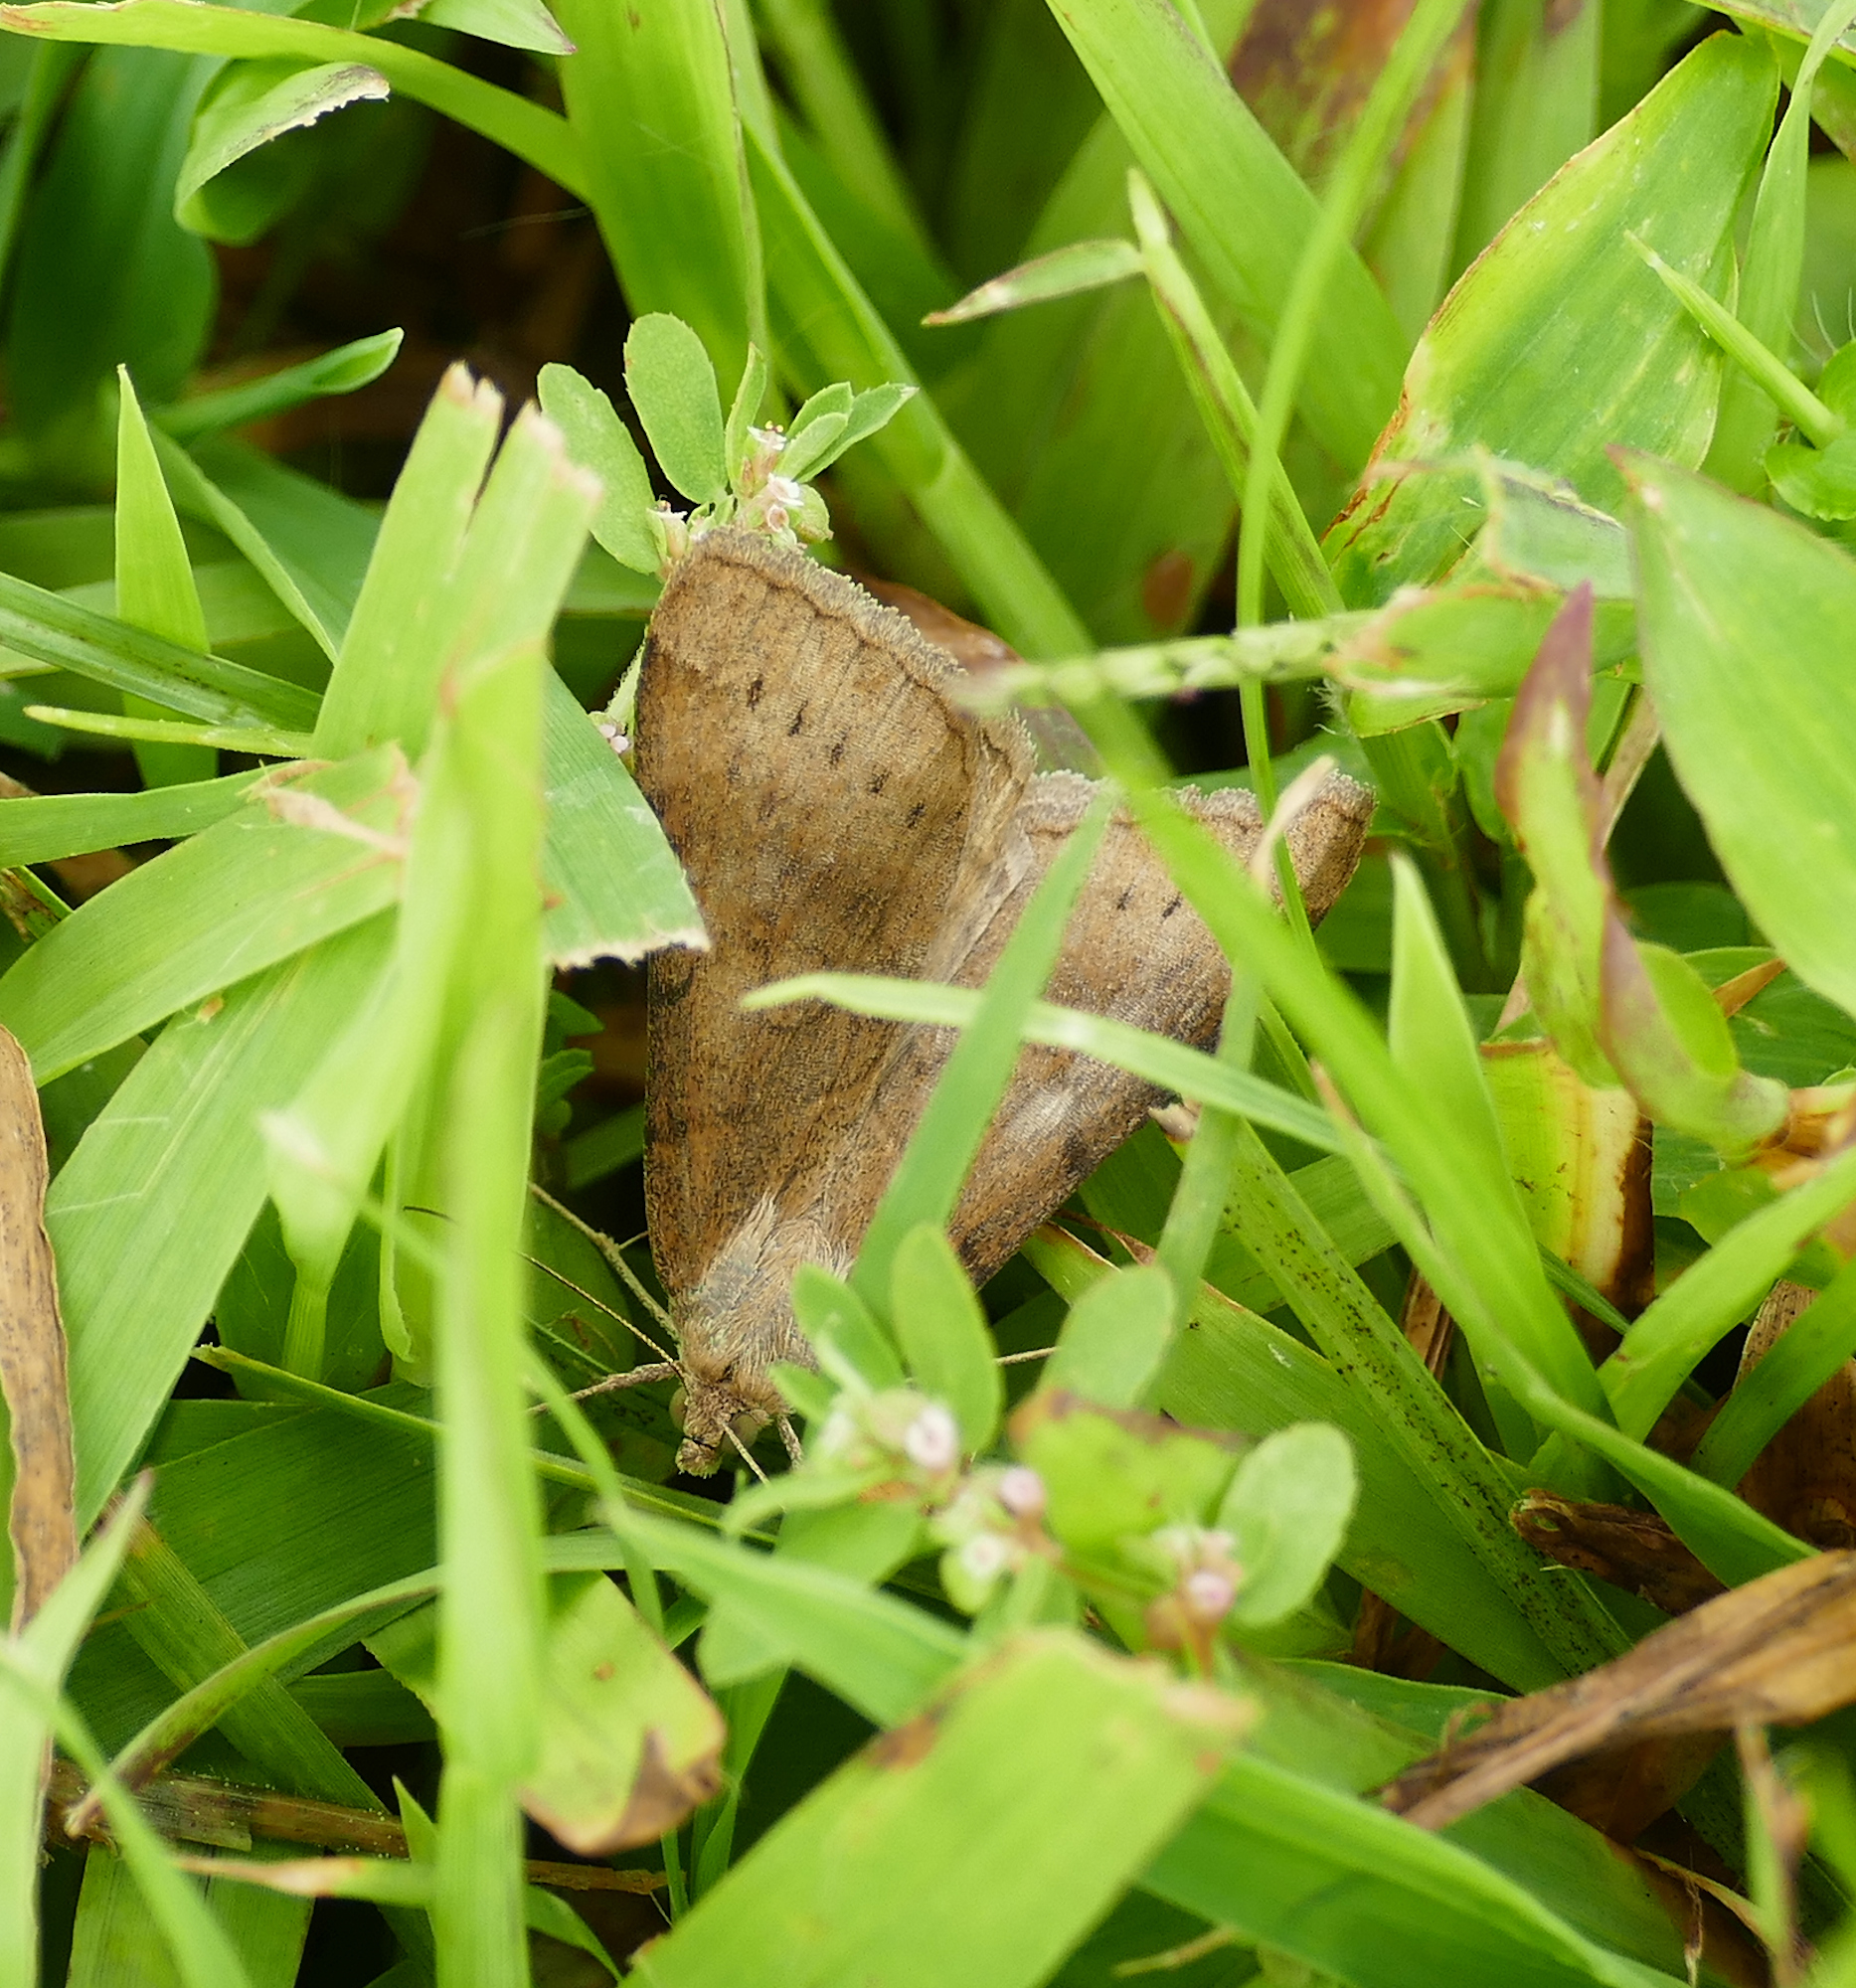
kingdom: Animalia
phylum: Arthropoda
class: Insecta
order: Lepidoptera
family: Erebidae
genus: Caenurgina
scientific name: Caenurgina erechtea
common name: Forage looper moth
